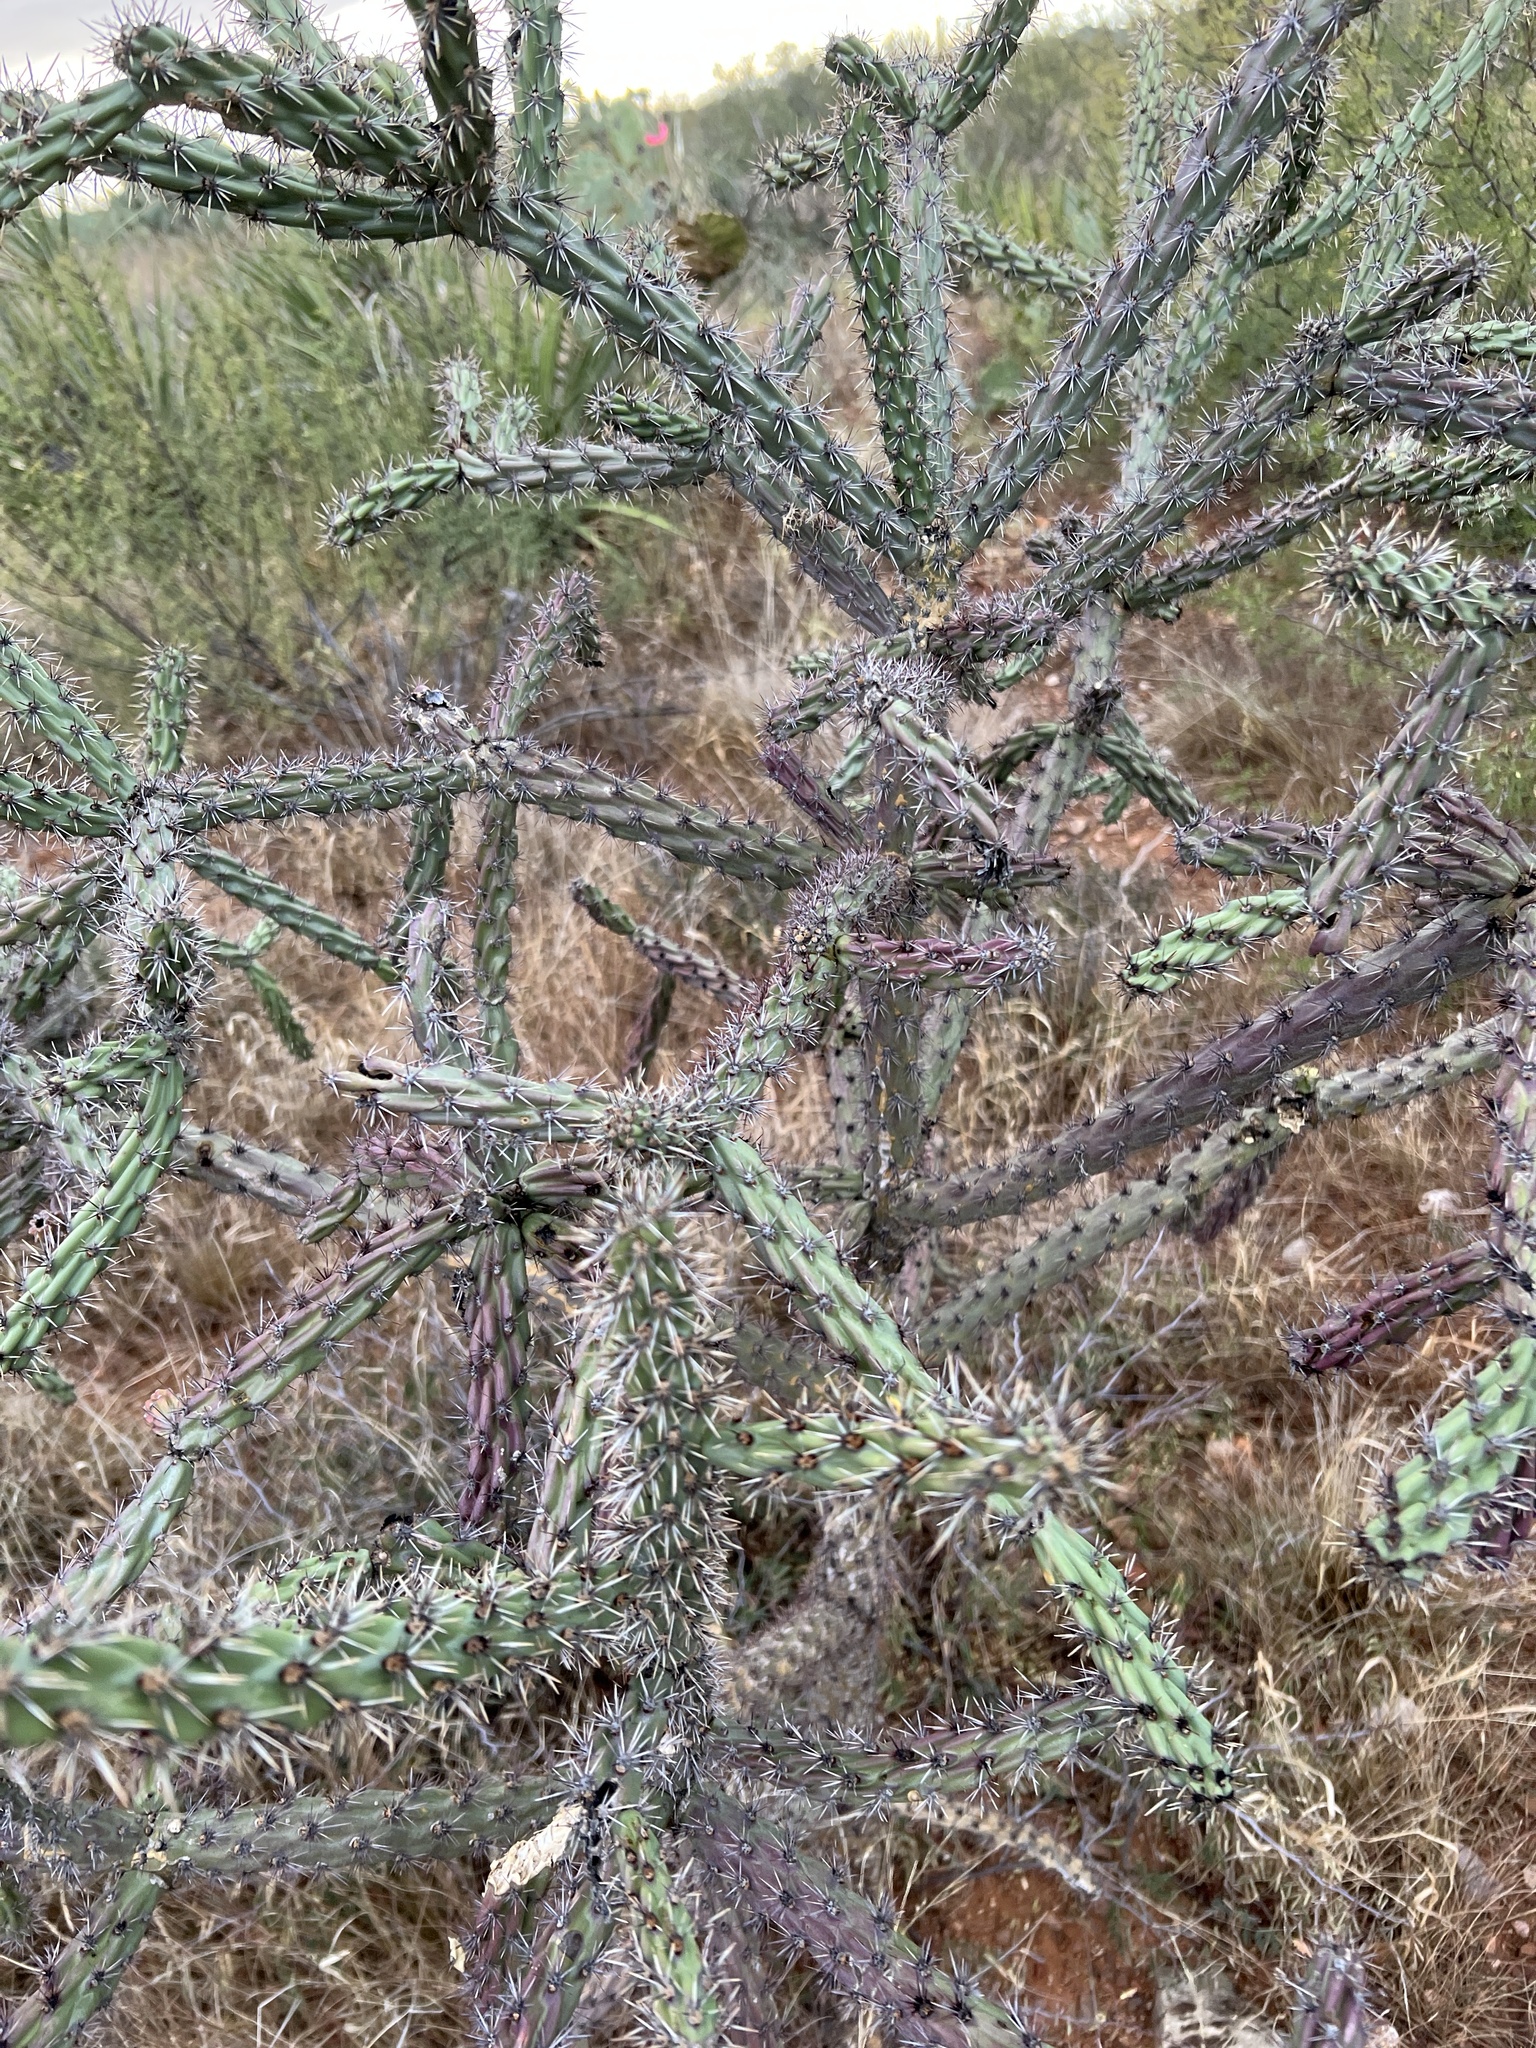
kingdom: Plantae
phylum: Tracheophyta
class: Magnoliopsida
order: Caryophyllales
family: Cactaceae
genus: Cylindropuntia
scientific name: Cylindropuntia thurberi
